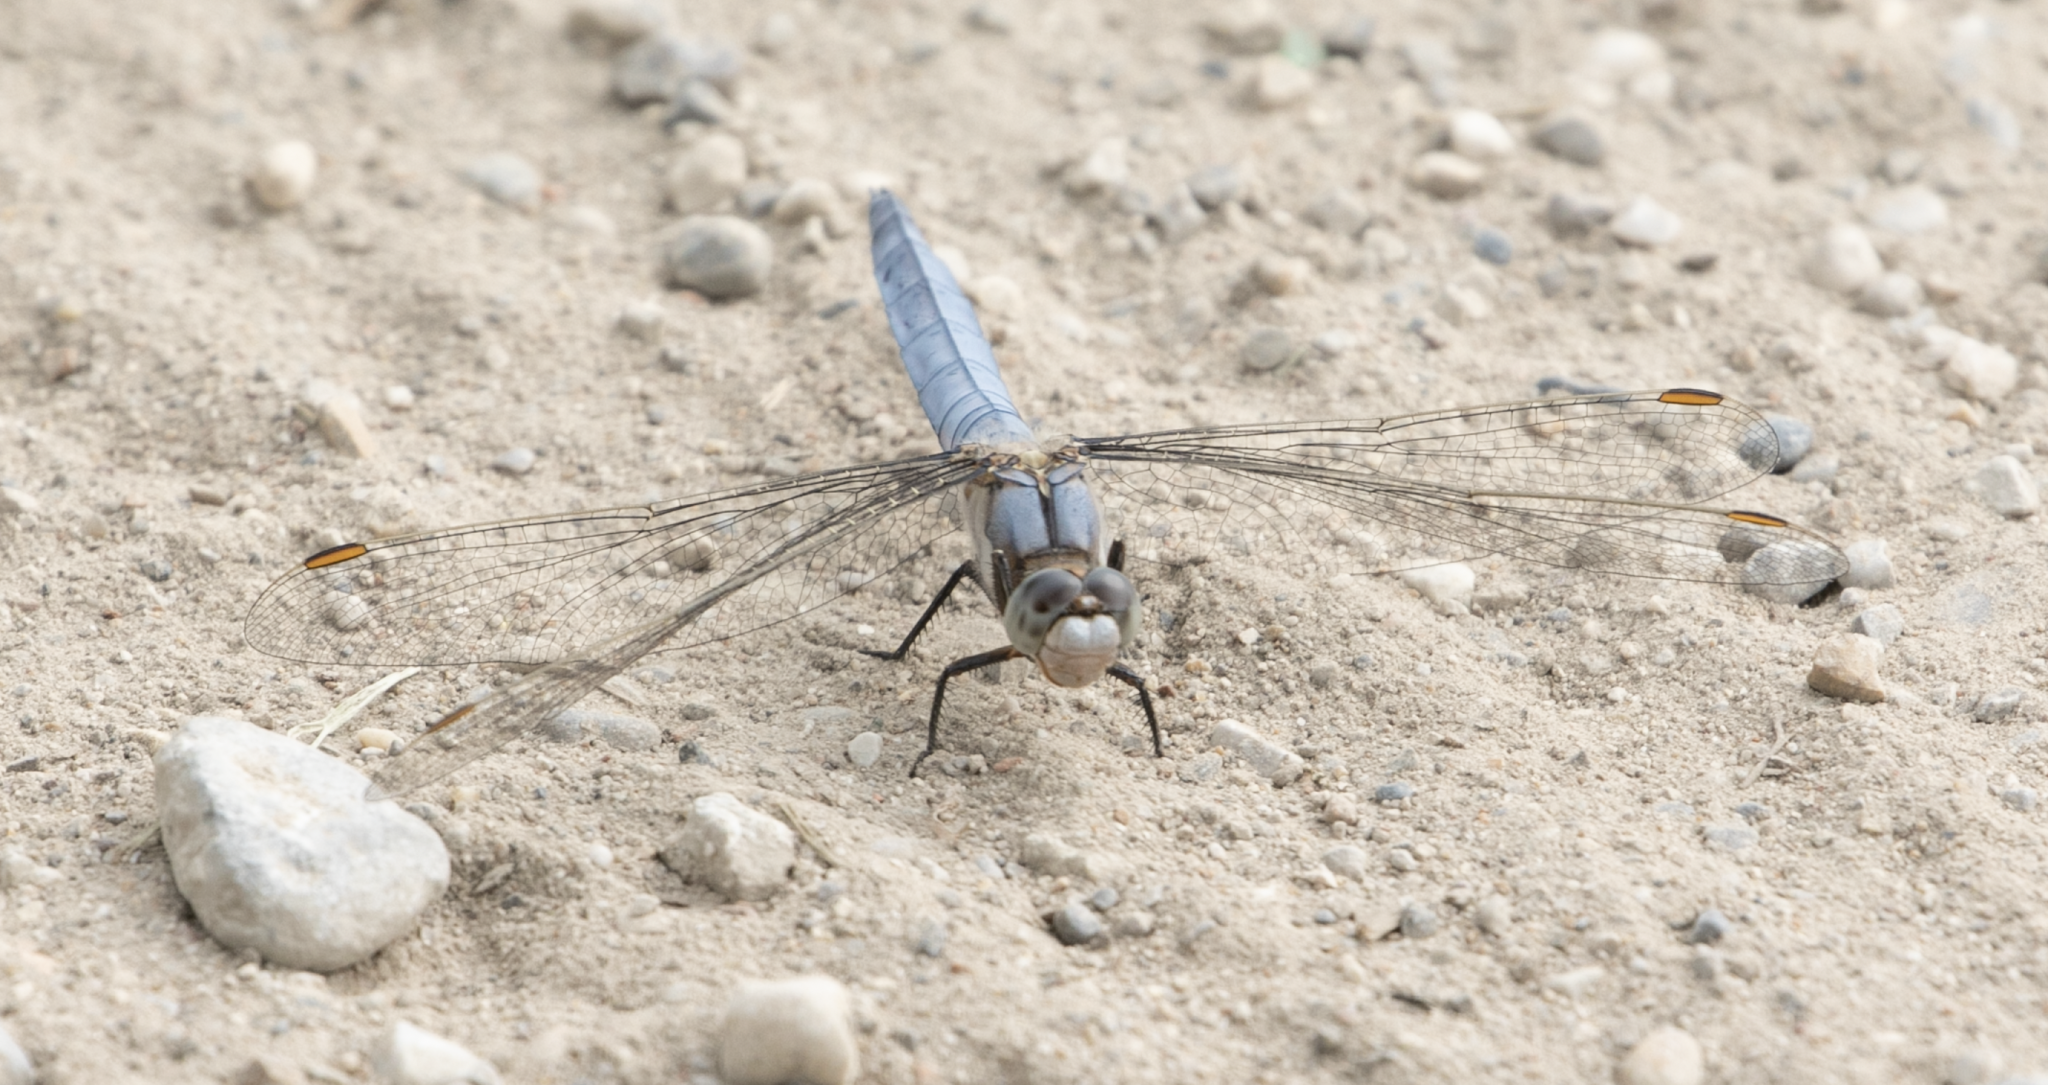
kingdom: Animalia
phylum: Arthropoda
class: Insecta
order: Odonata
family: Libellulidae
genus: Orthetrum
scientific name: Orthetrum brunneum
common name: Southern skimmer
